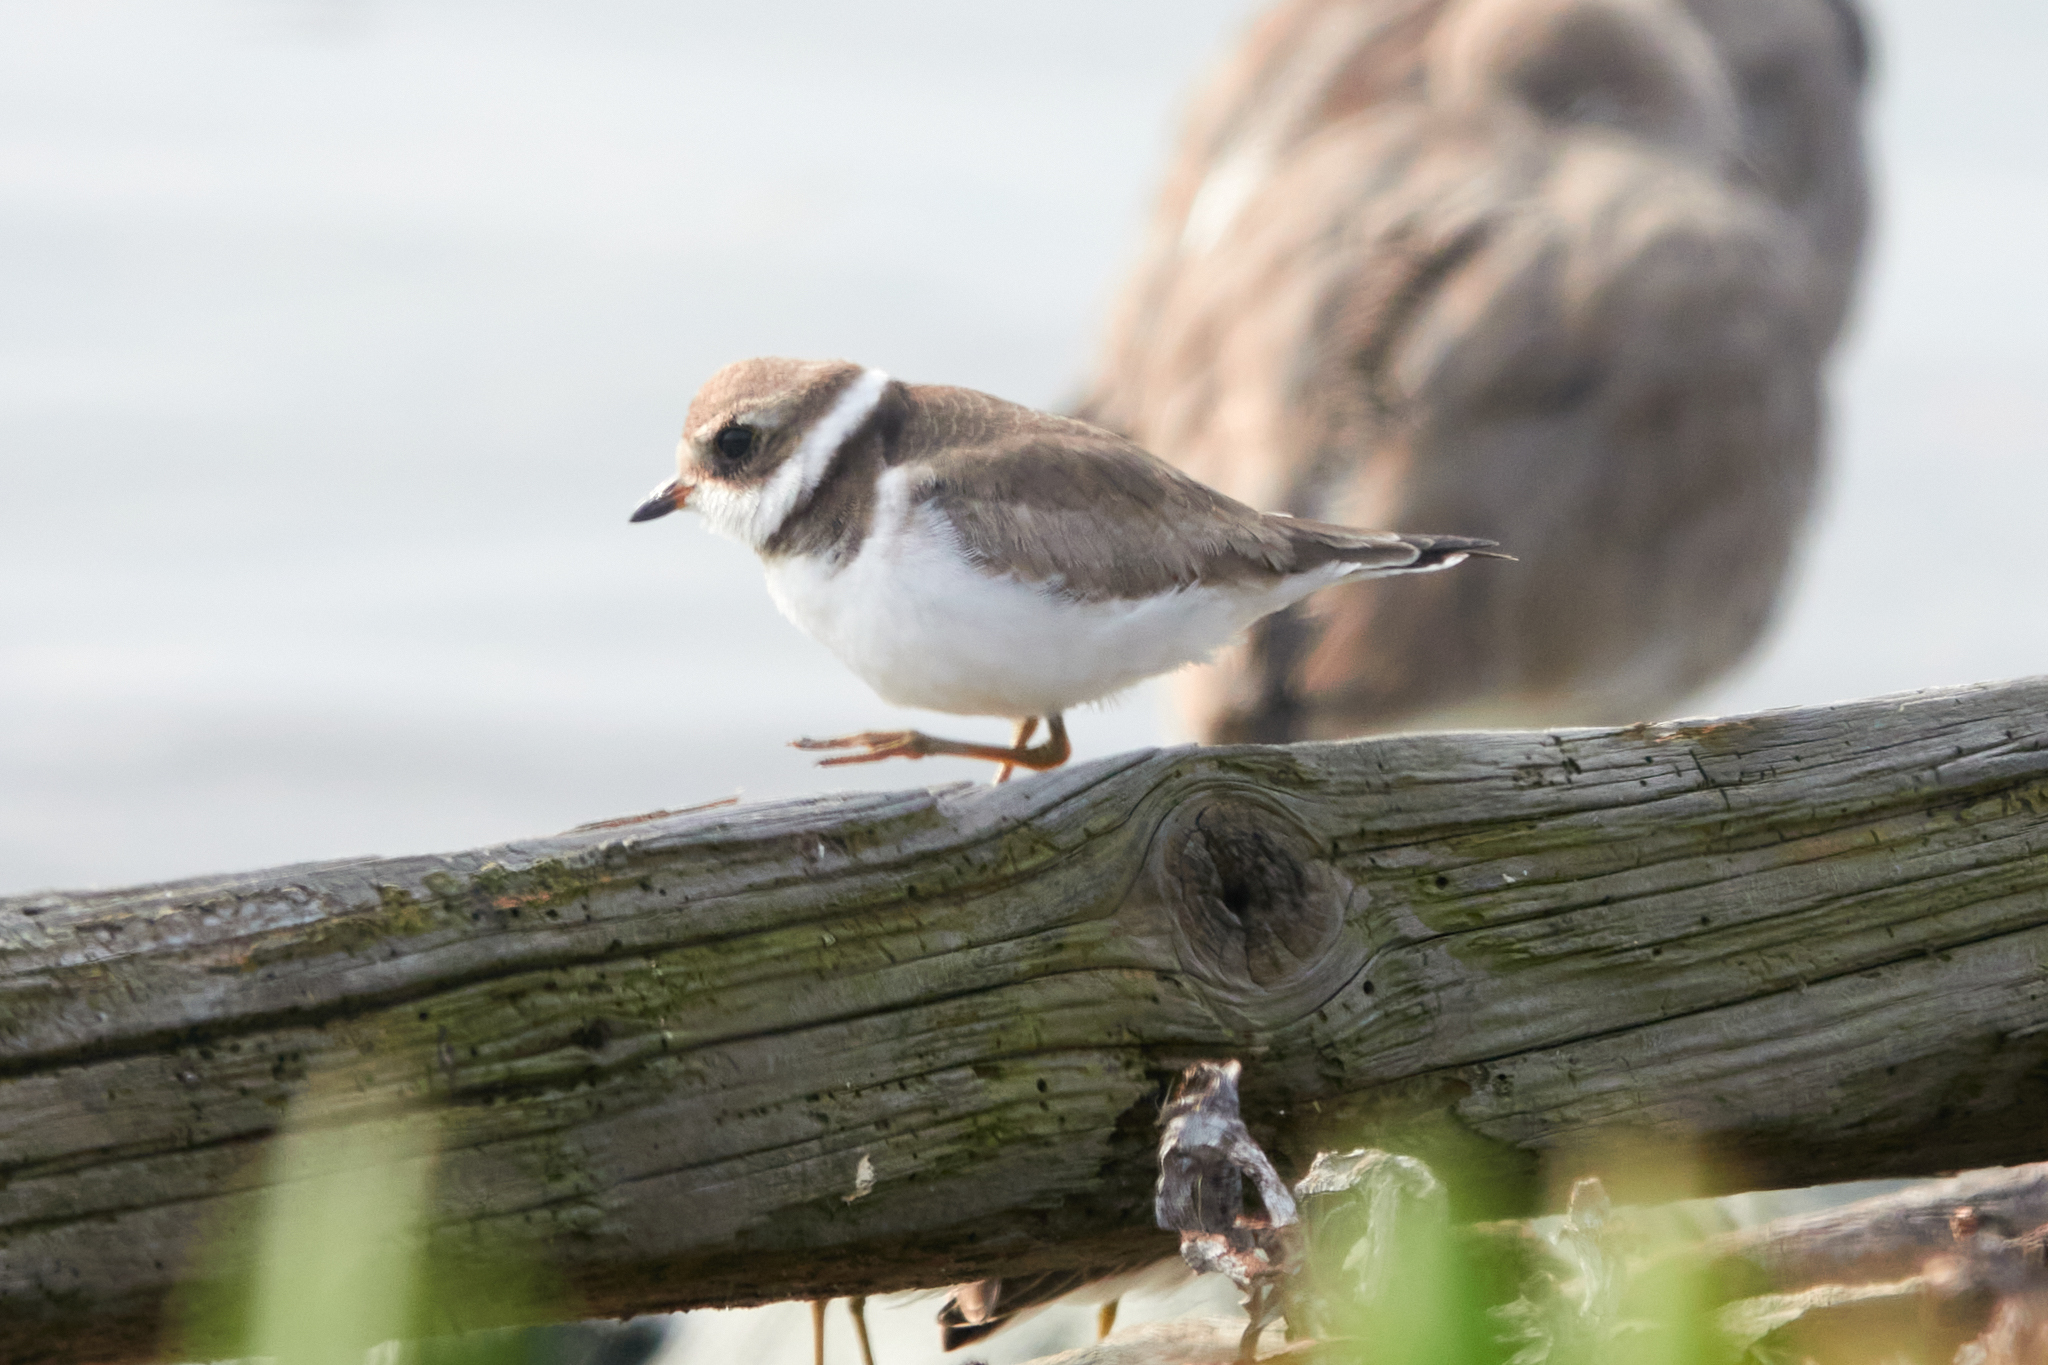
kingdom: Animalia
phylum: Chordata
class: Aves
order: Charadriiformes
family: Charadriidae
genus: Charadrius
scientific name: Charadrius semipalmatus
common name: Semipalmated plover
